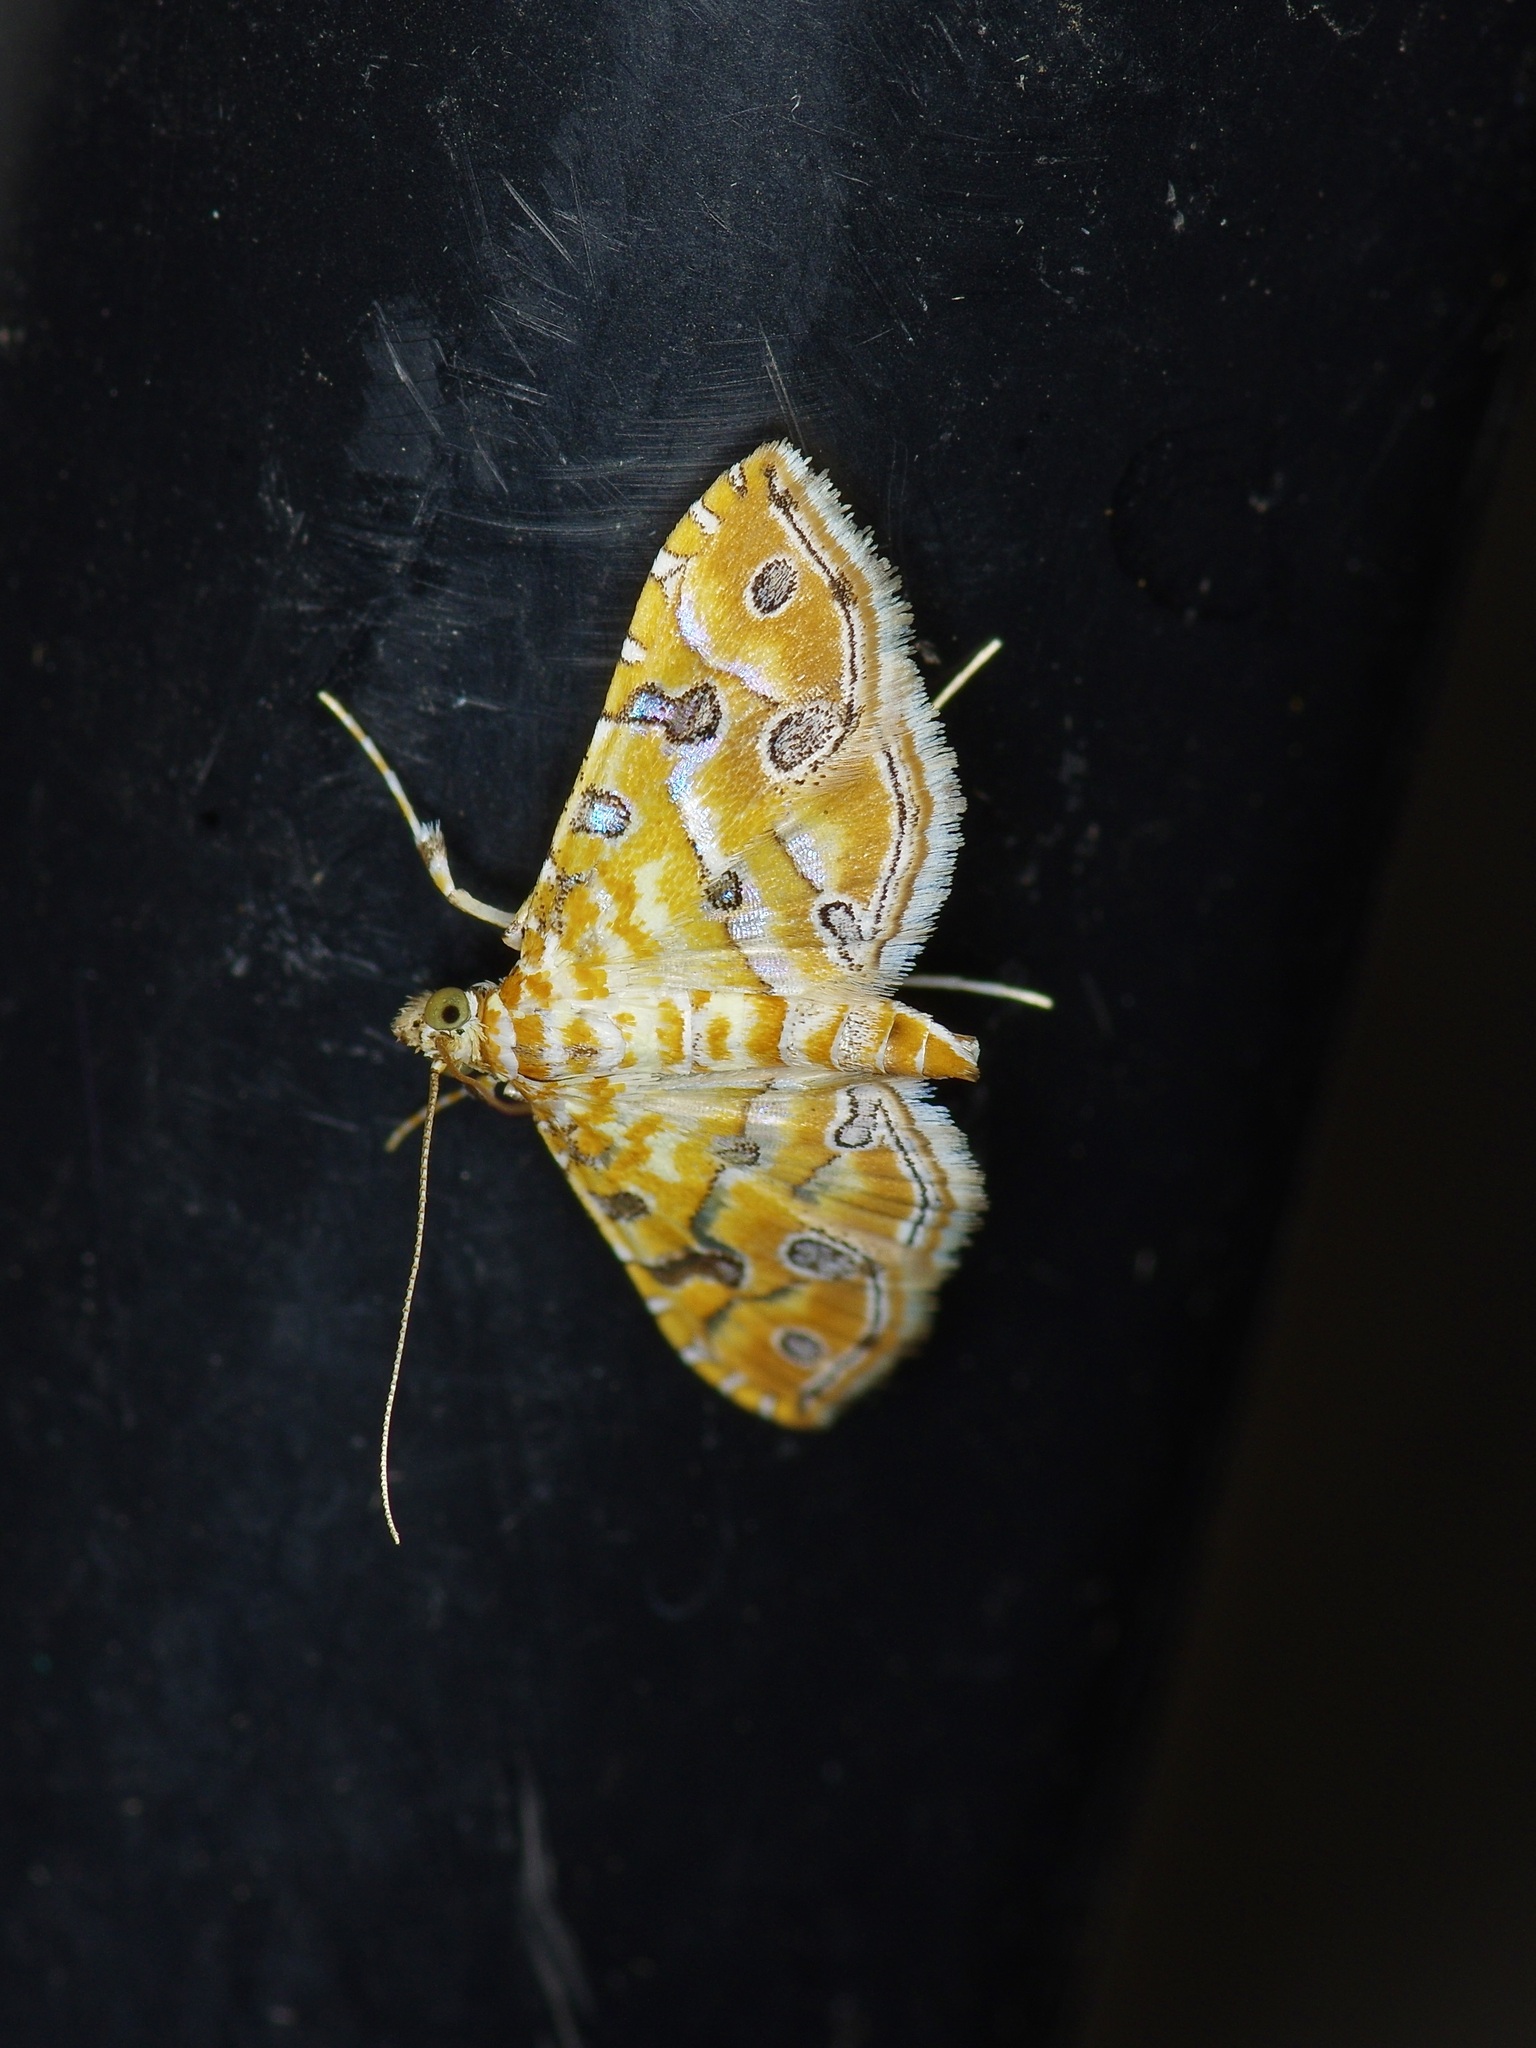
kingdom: Animalia
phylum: Arthropoda
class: Insecta
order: Lepidoptera
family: Crambidae
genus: Ommatospila
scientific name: Ommatospila narcaeusalis
